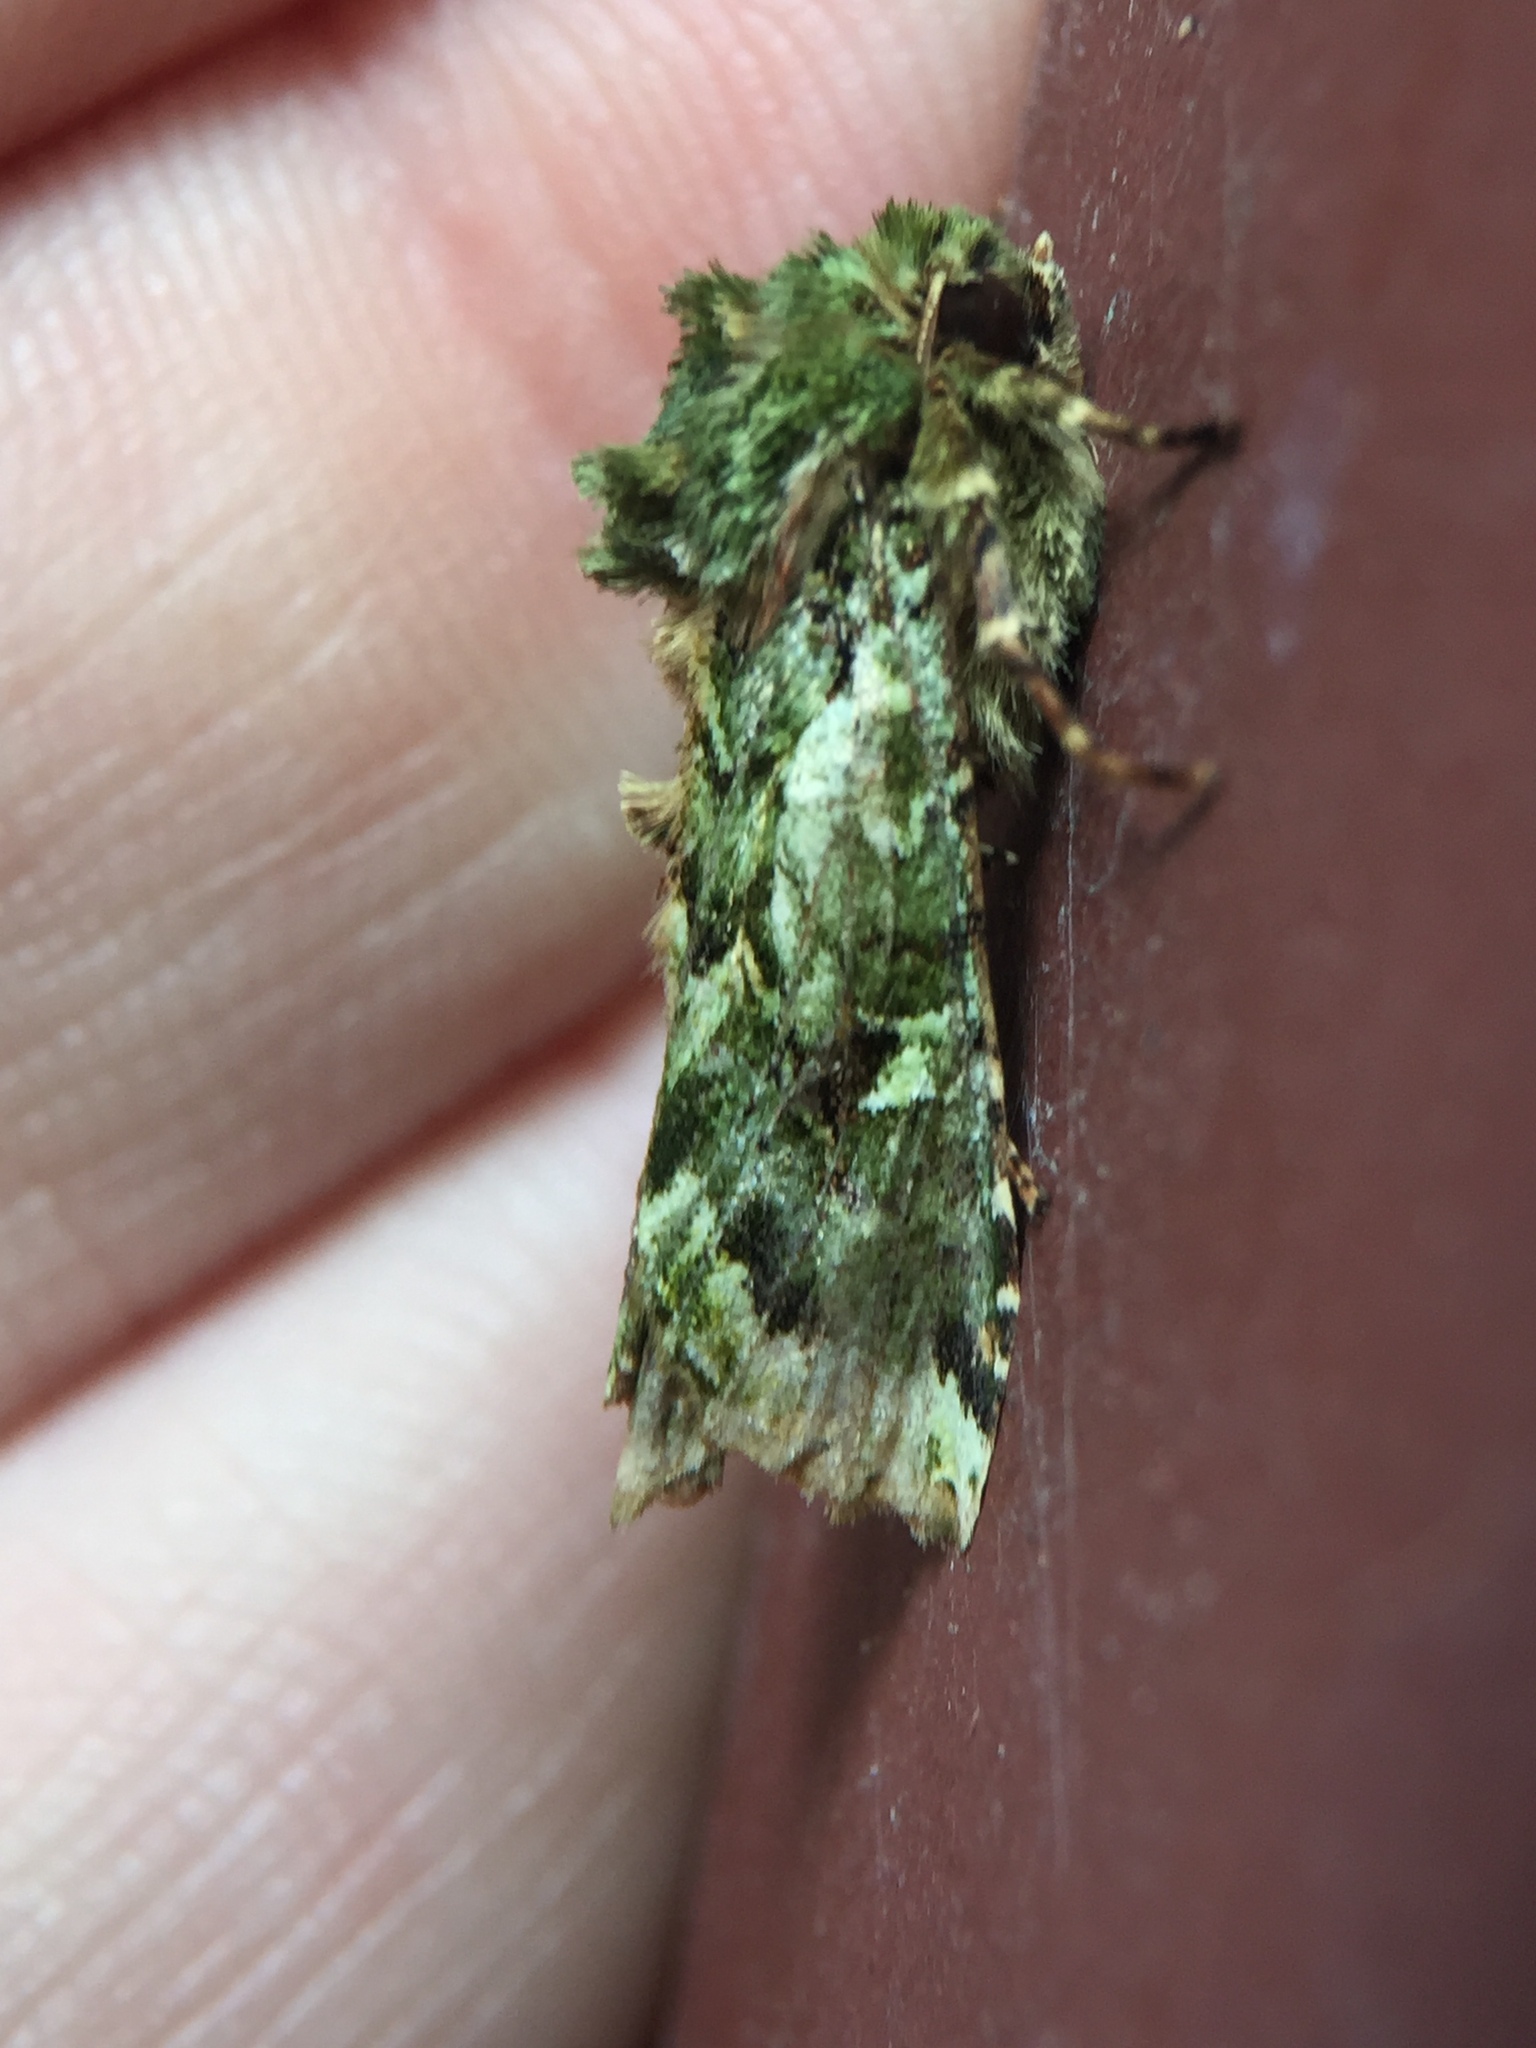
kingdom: Animalia
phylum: Arthropoda
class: Insecta
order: Lepidoptera
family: Noctuidae
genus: Feredayia
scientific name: Feredayia grammosa
